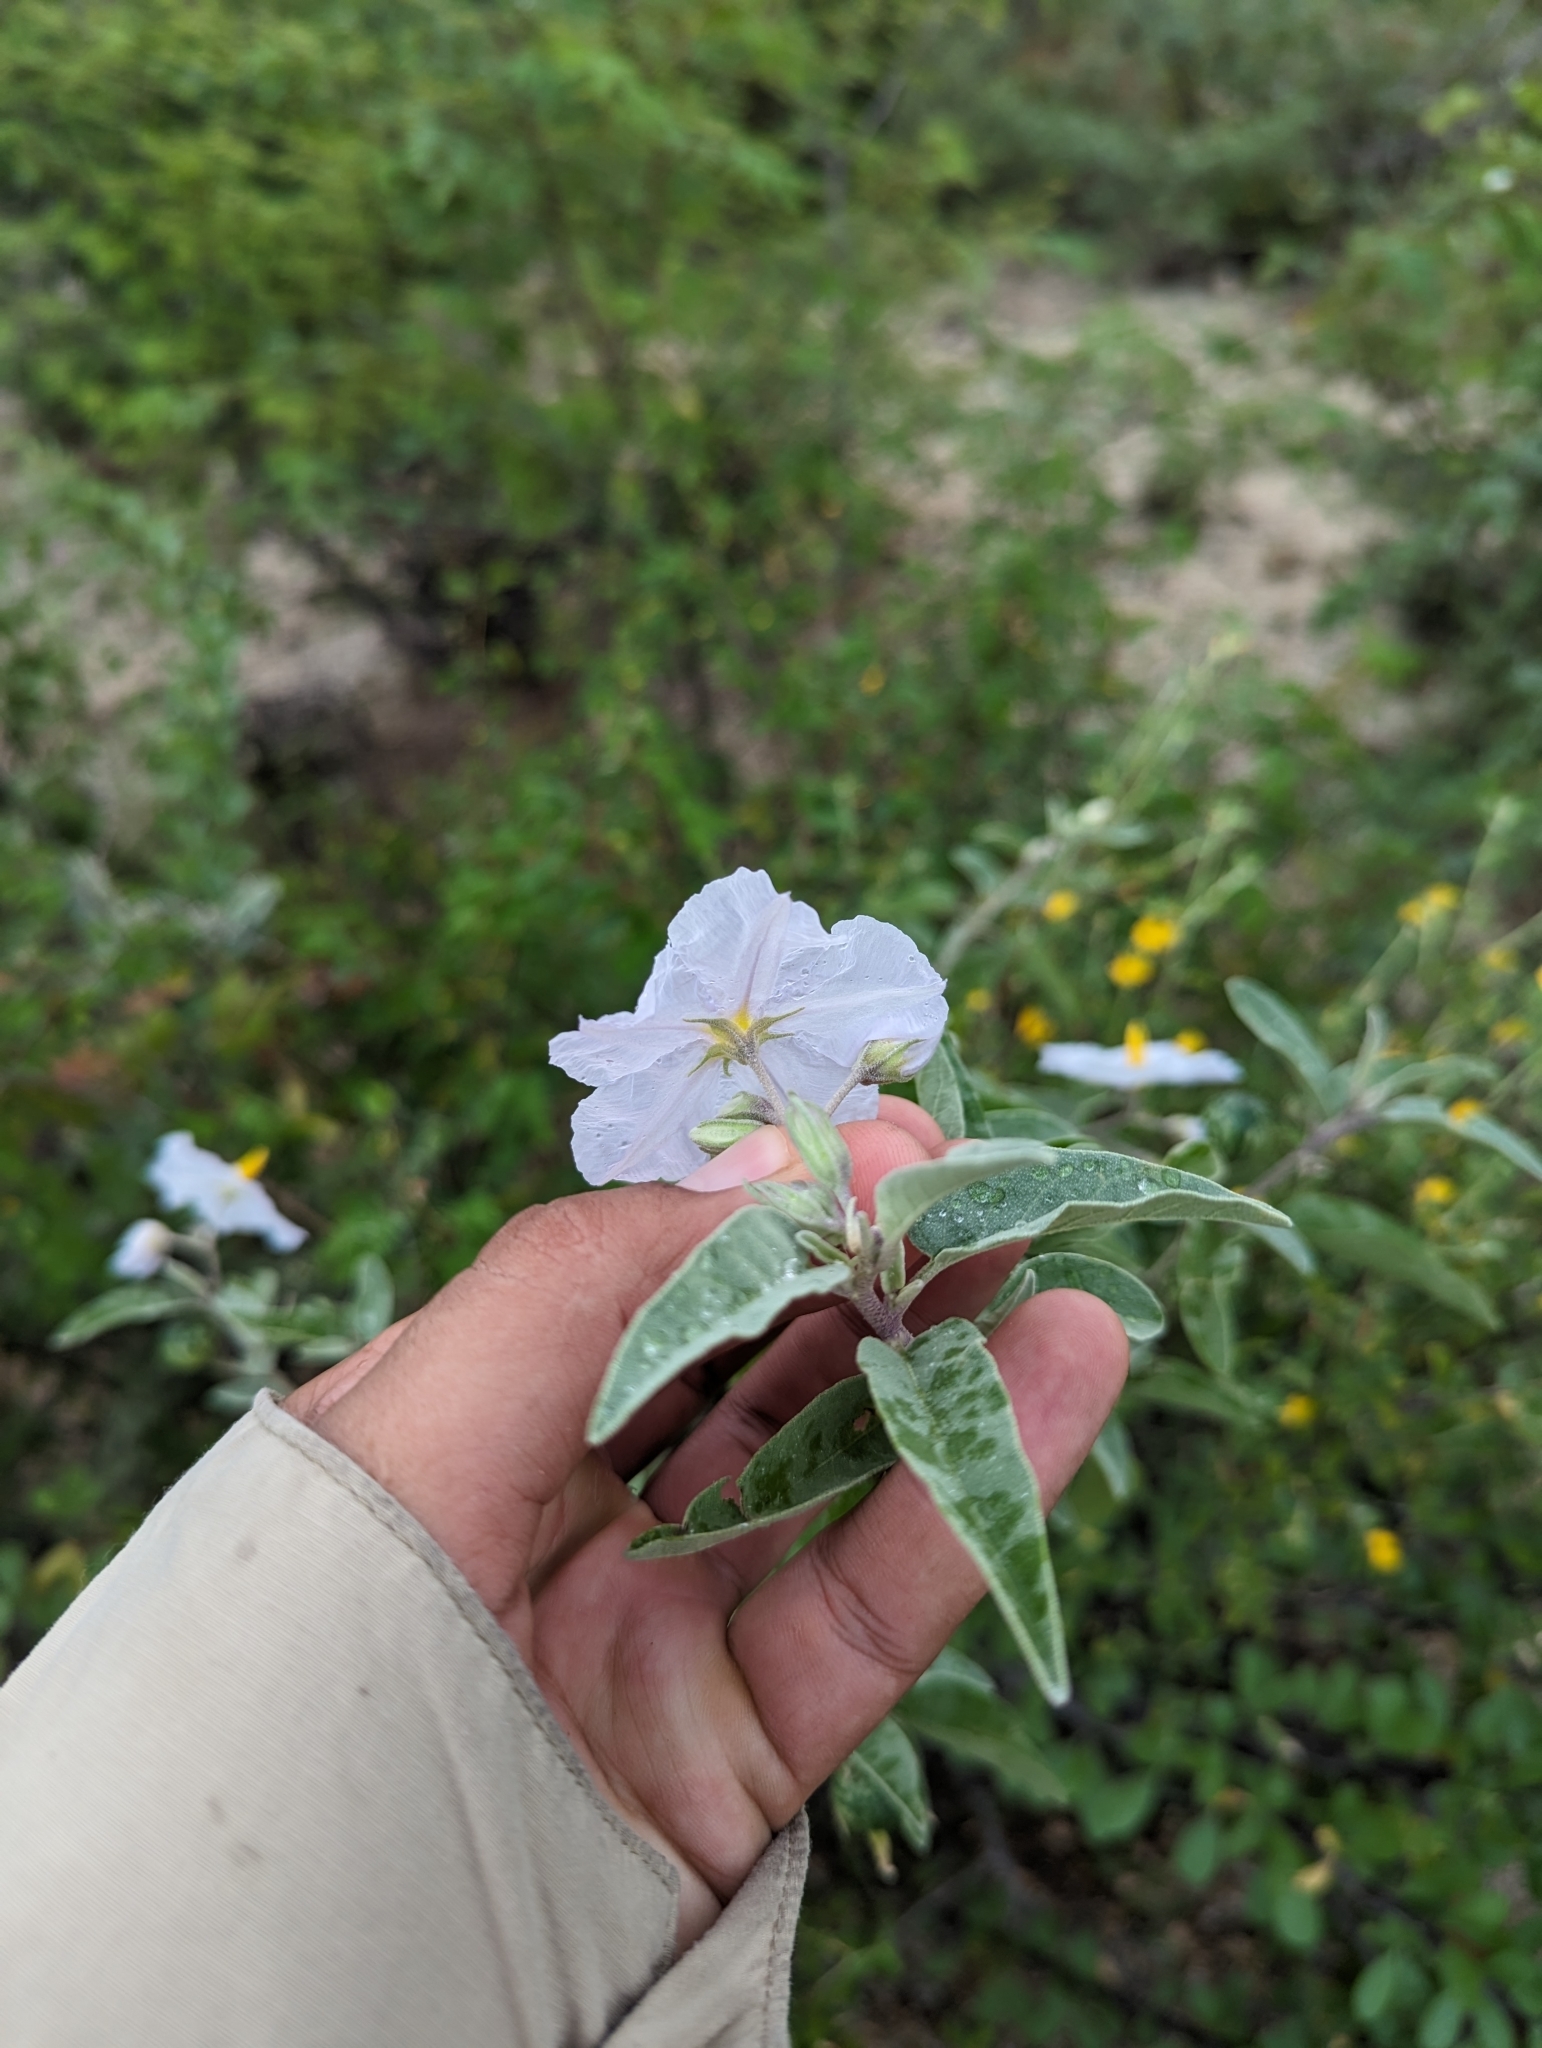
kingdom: Plantae
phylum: Tracheophyta
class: Magnoliopsida
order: Solanales
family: Solanaceae
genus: Solanum
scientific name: Solanum hindsianum
